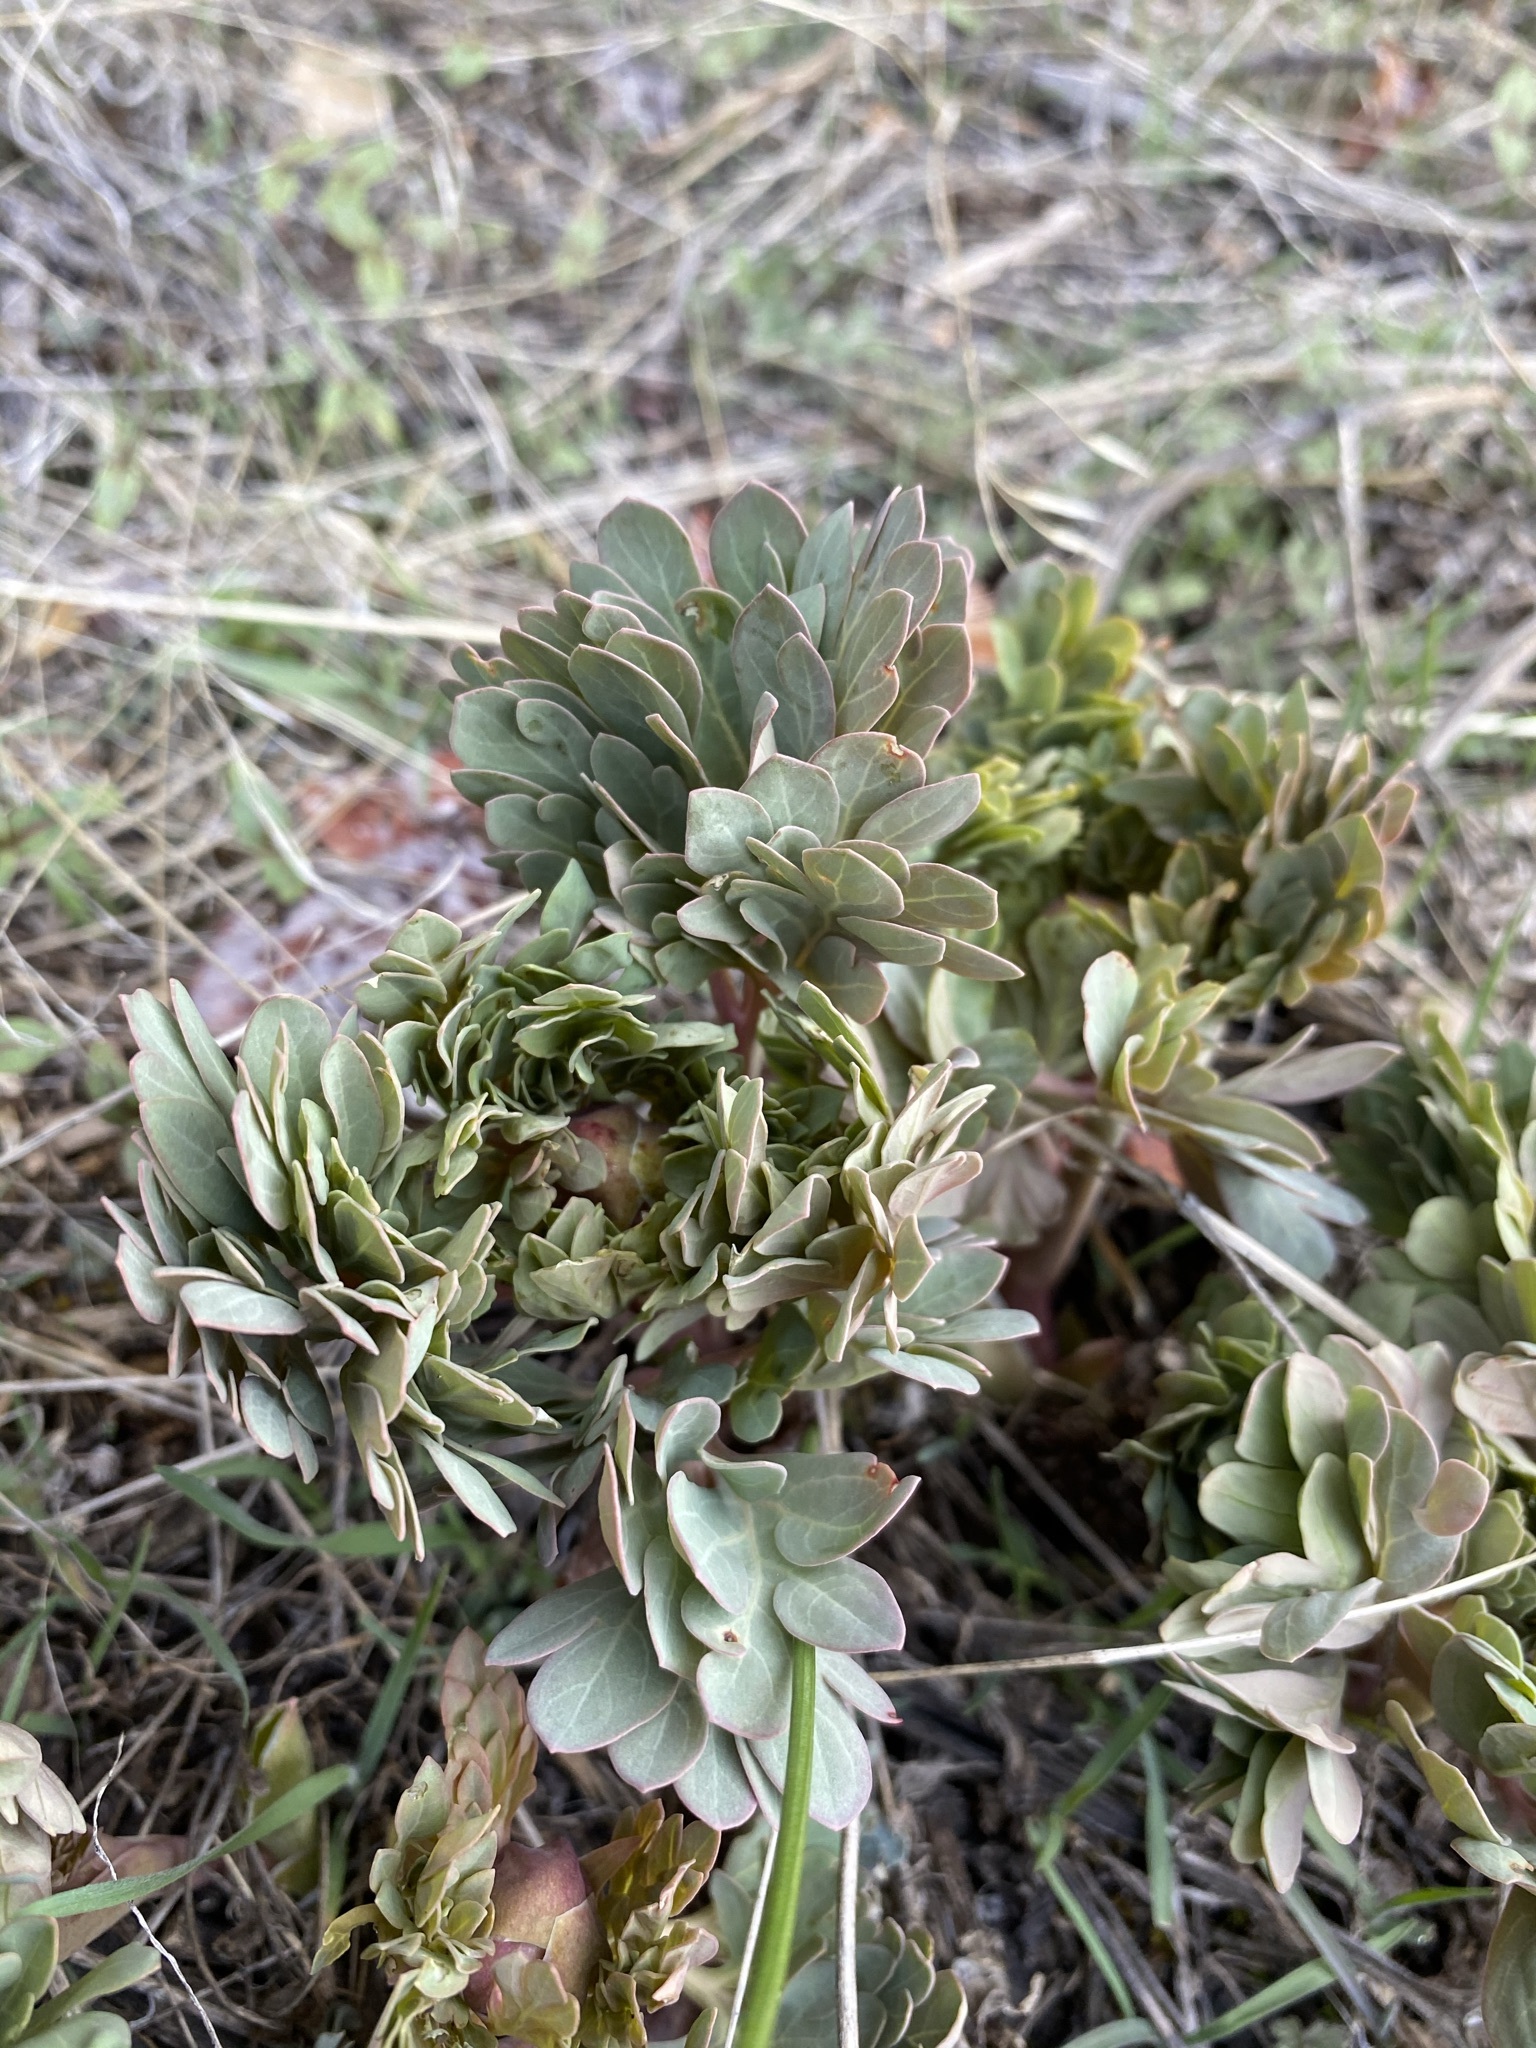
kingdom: Plantae
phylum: Tracheophyta
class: Magnoliopsida
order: Saxifragales
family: Paeoniaceae
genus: Paeonia
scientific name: Paeonia brownii
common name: Brown's peony
